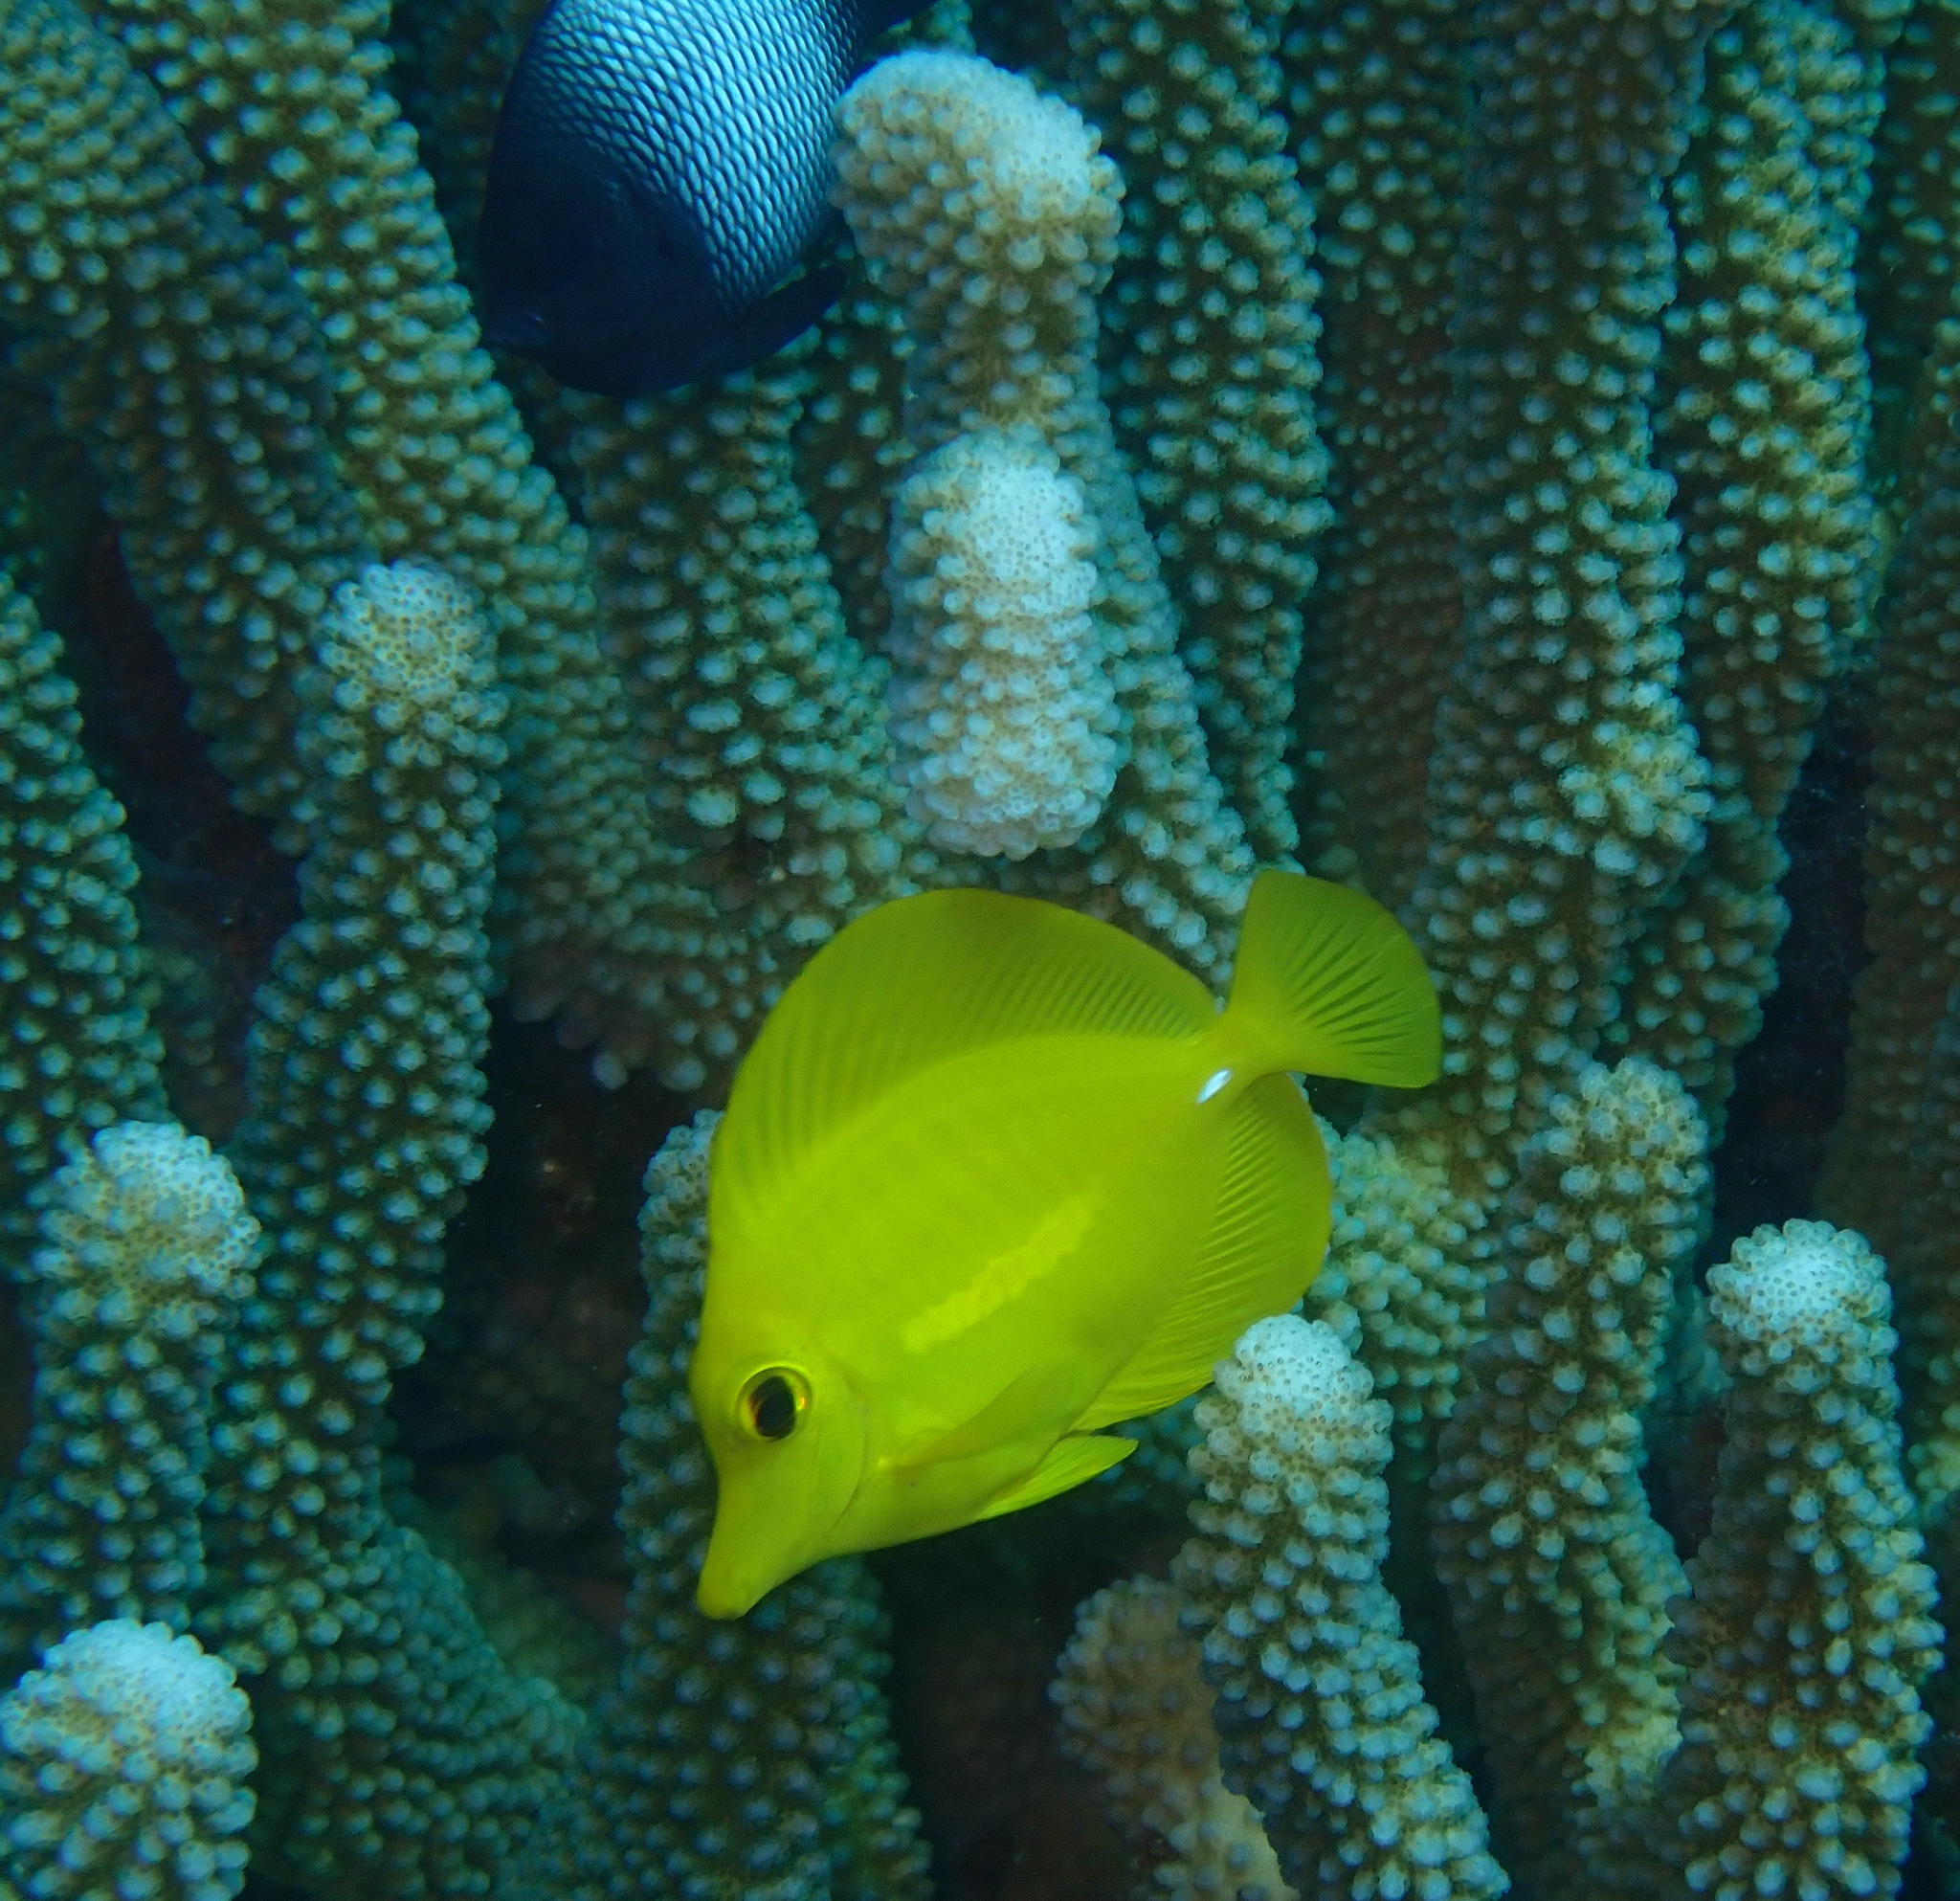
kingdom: Animalia
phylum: Chordata
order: Perciformes
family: Acanthuridae
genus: Zebrasoma
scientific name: Zebrasoma flavescens
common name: Yellow tang
